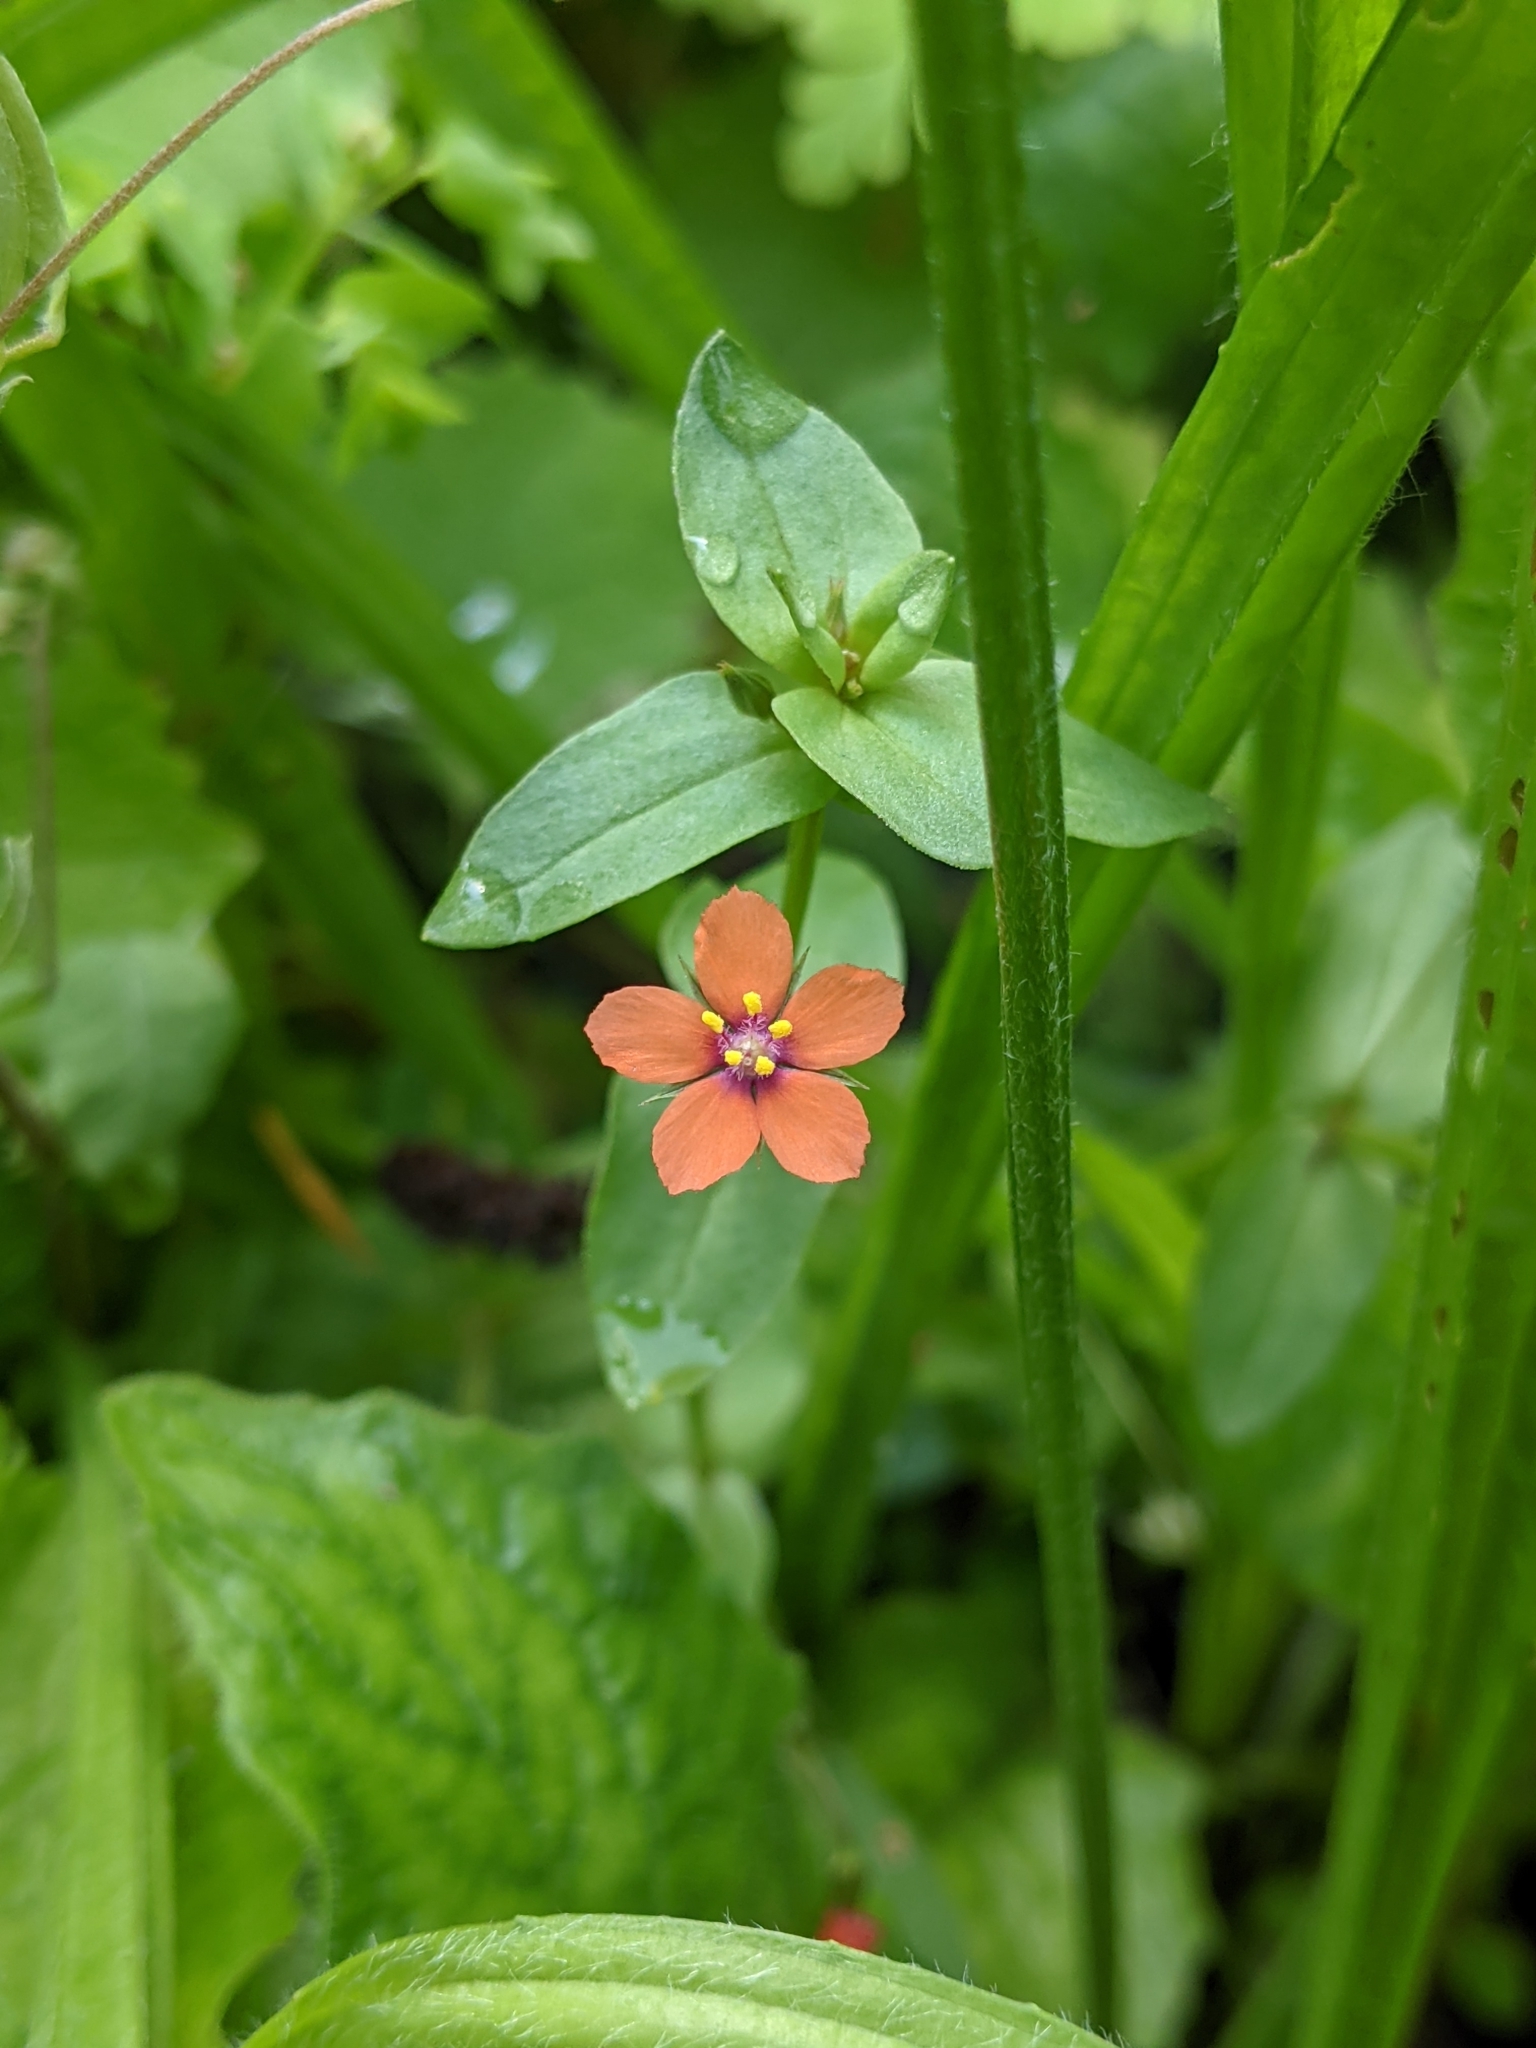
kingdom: Plantae
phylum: Tracheophyta
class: Magnoliopsida
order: Ericales
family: Primulaceae
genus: Lysimachia
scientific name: Lysimachia arvensis
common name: Scarlet pimpernel
